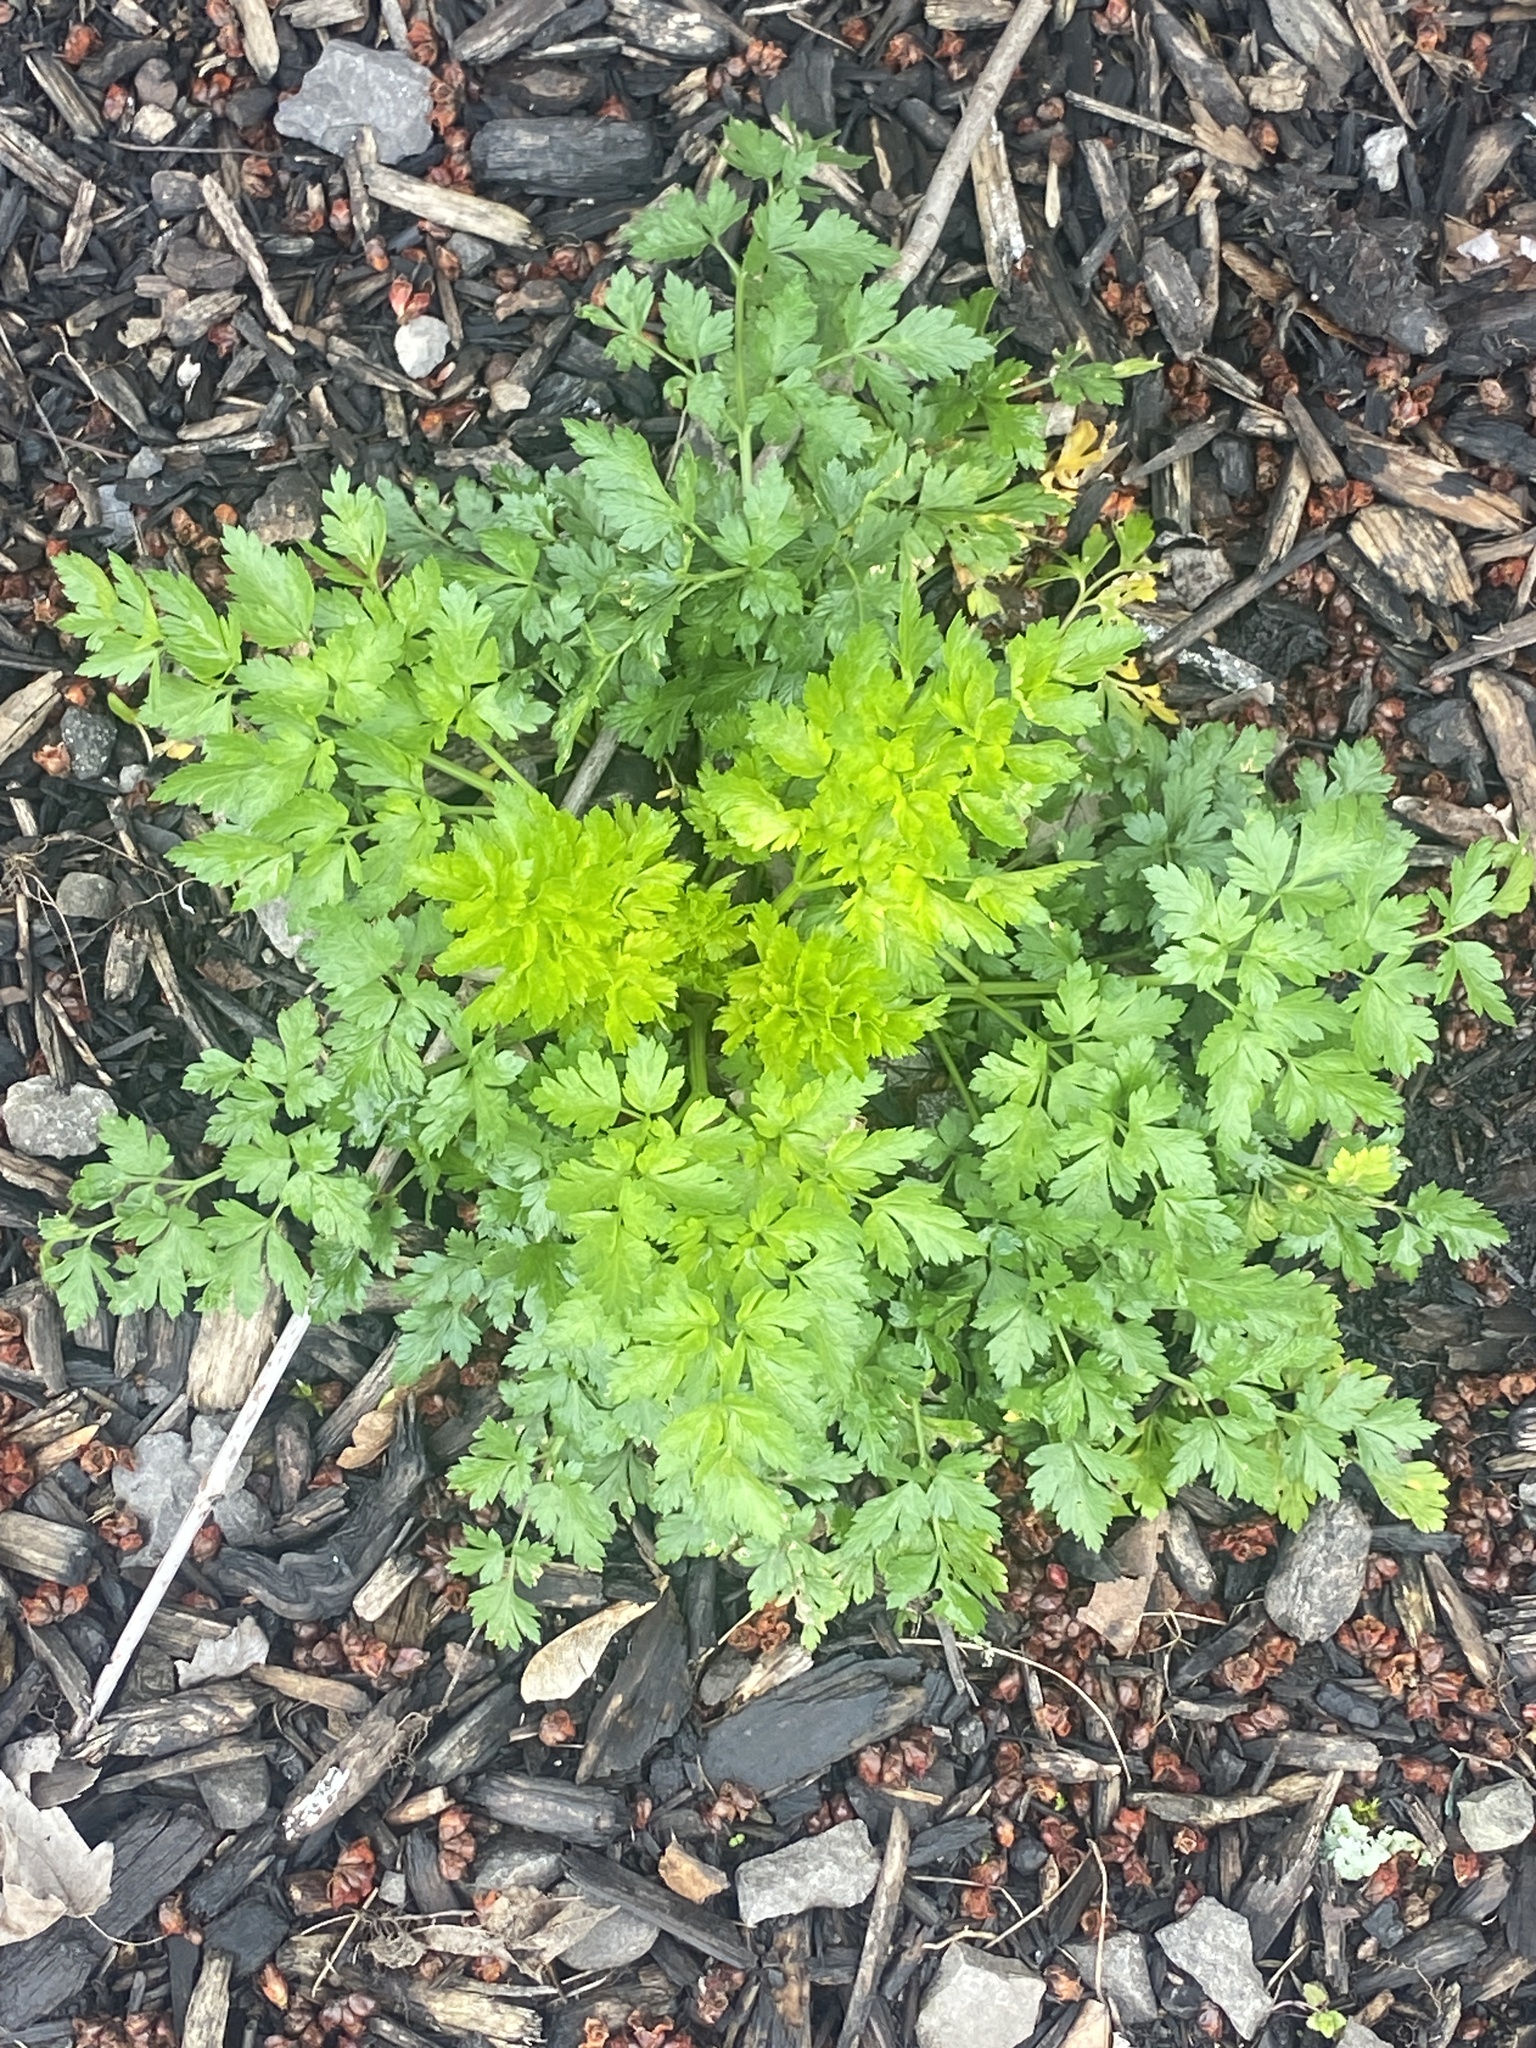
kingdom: Plantae
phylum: Tracheophyta
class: Magnoliopsida
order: Apiales
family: Apiaceae
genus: Petroselinum
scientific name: Petroselinum crispum
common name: Parsley
